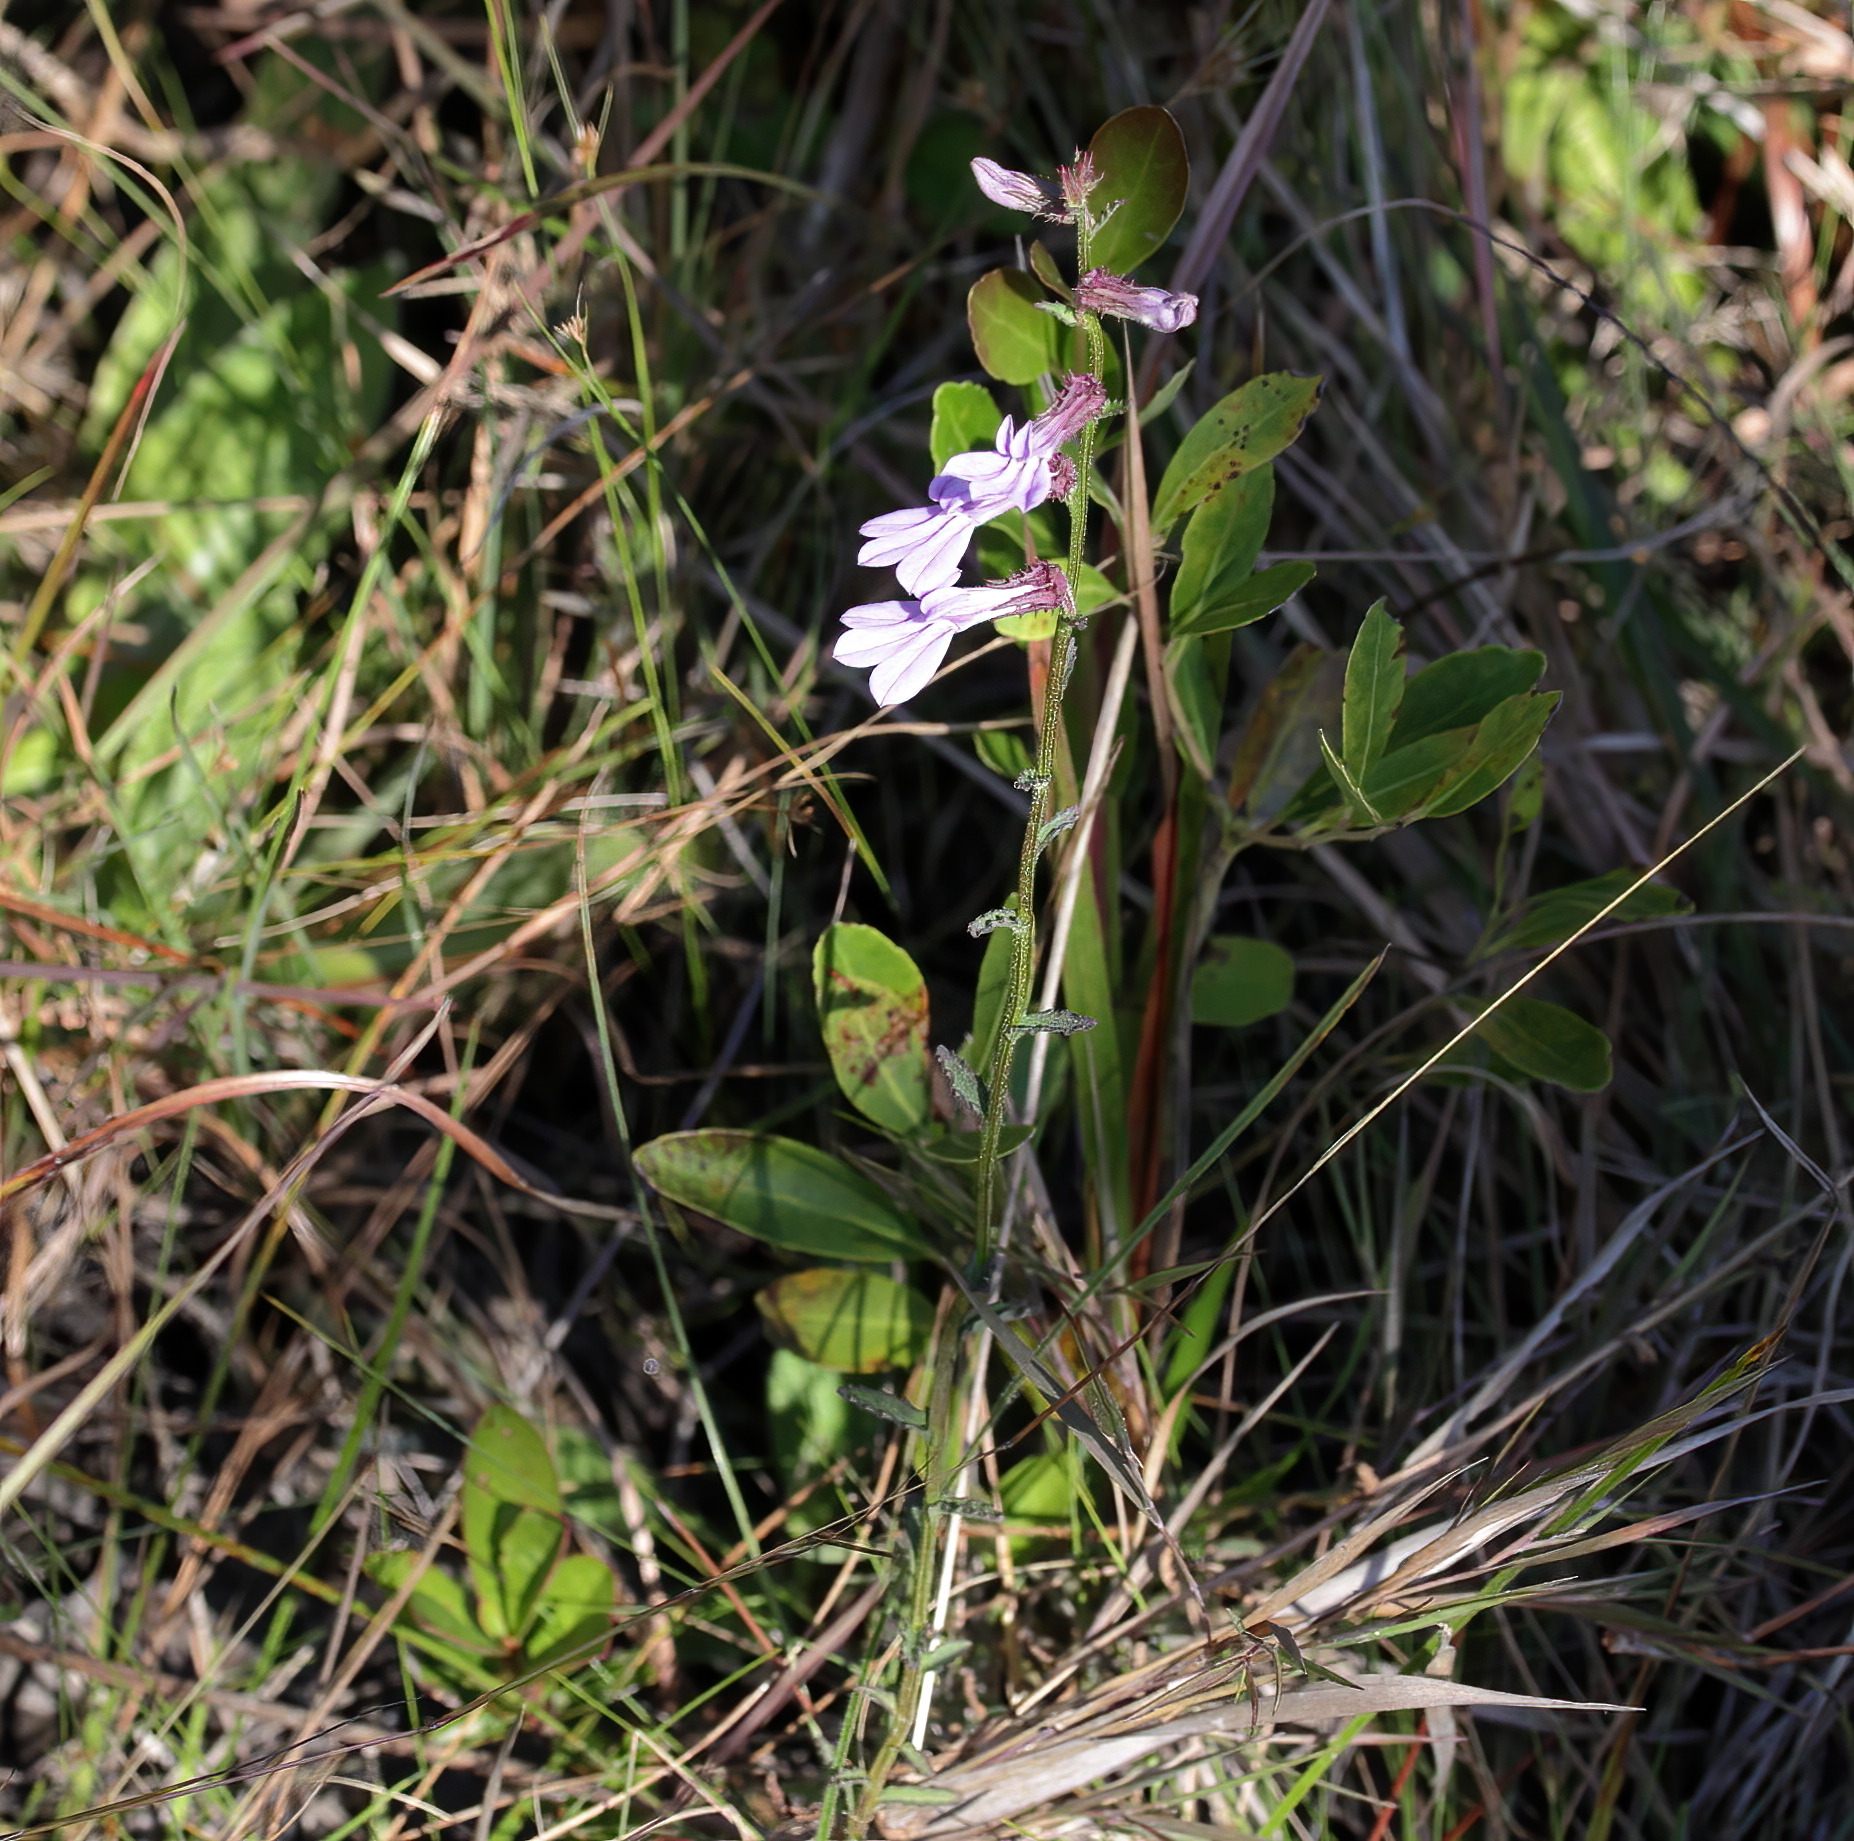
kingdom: Plantae
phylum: Tracheophyta
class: Magnoliopsida
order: Asterales
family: Campanulaceae
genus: Lobelia
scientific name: Lobelia brevifolia
